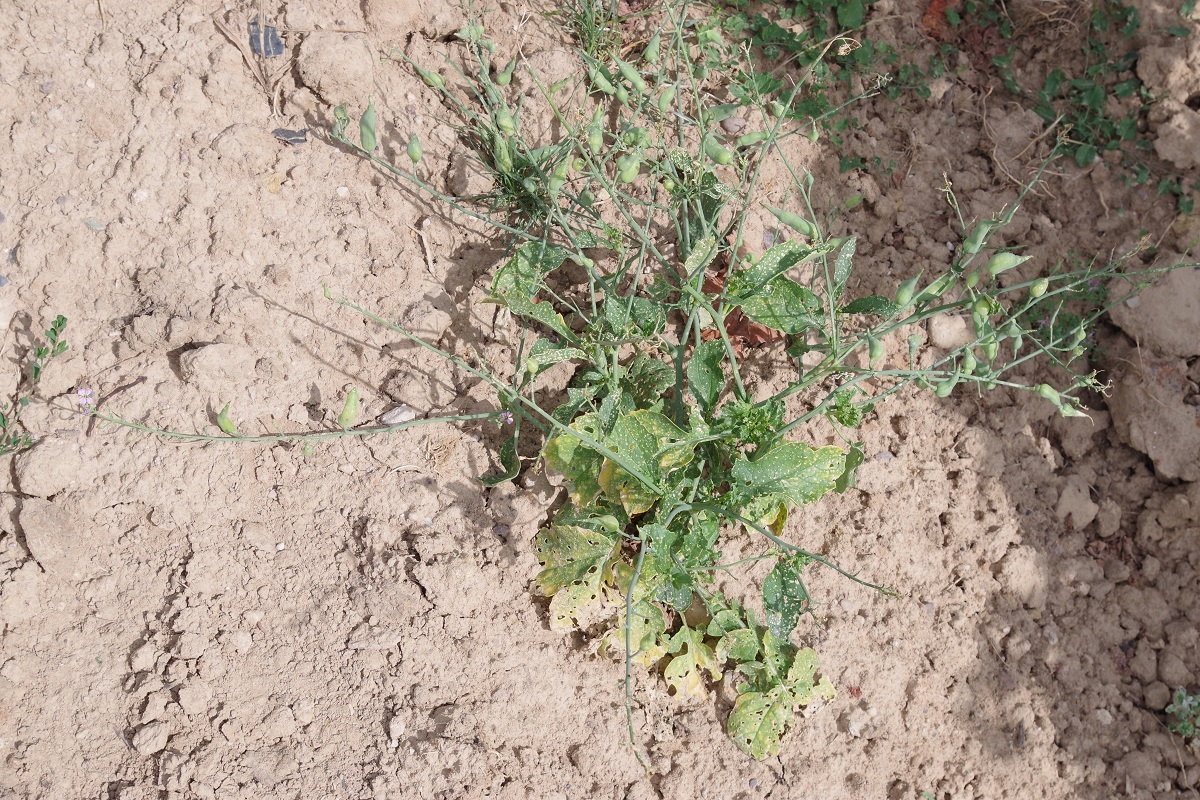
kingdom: Plantae
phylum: Tracheophyta
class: Magnoliopsida
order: Brassicales
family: Brassicaceae
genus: Raphanus
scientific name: Raphanus sativus
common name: Cultivated radish
